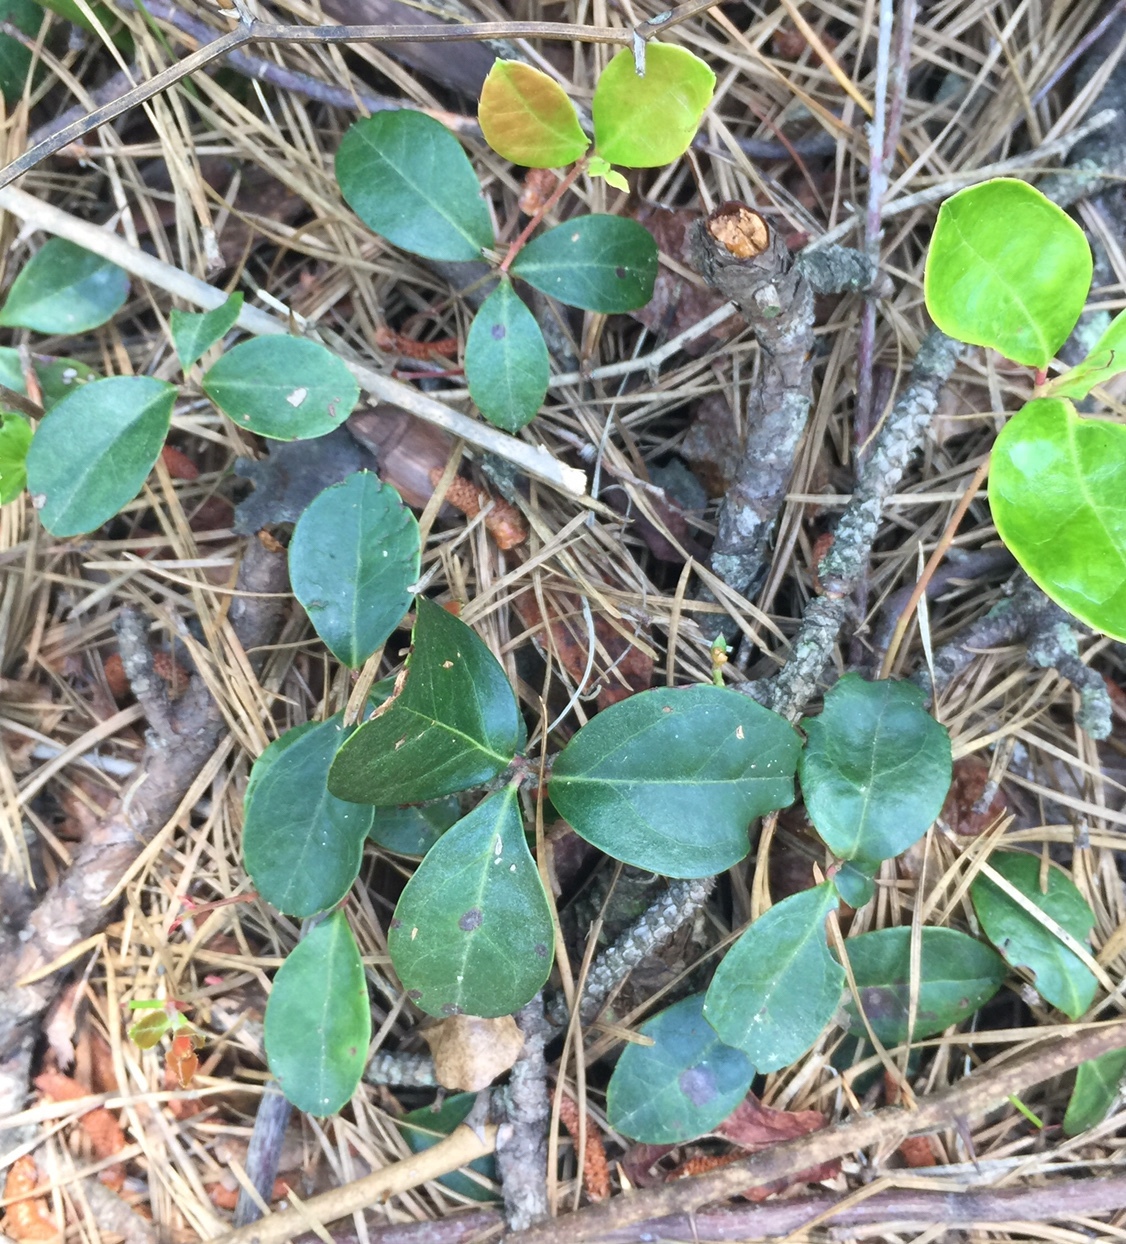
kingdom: Plantae
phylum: Tracheophyta
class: Magnoliopsida
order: Ericales
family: Ericaceae
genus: Gaultheria
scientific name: Gaultheria procumbens
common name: Checkerberry
